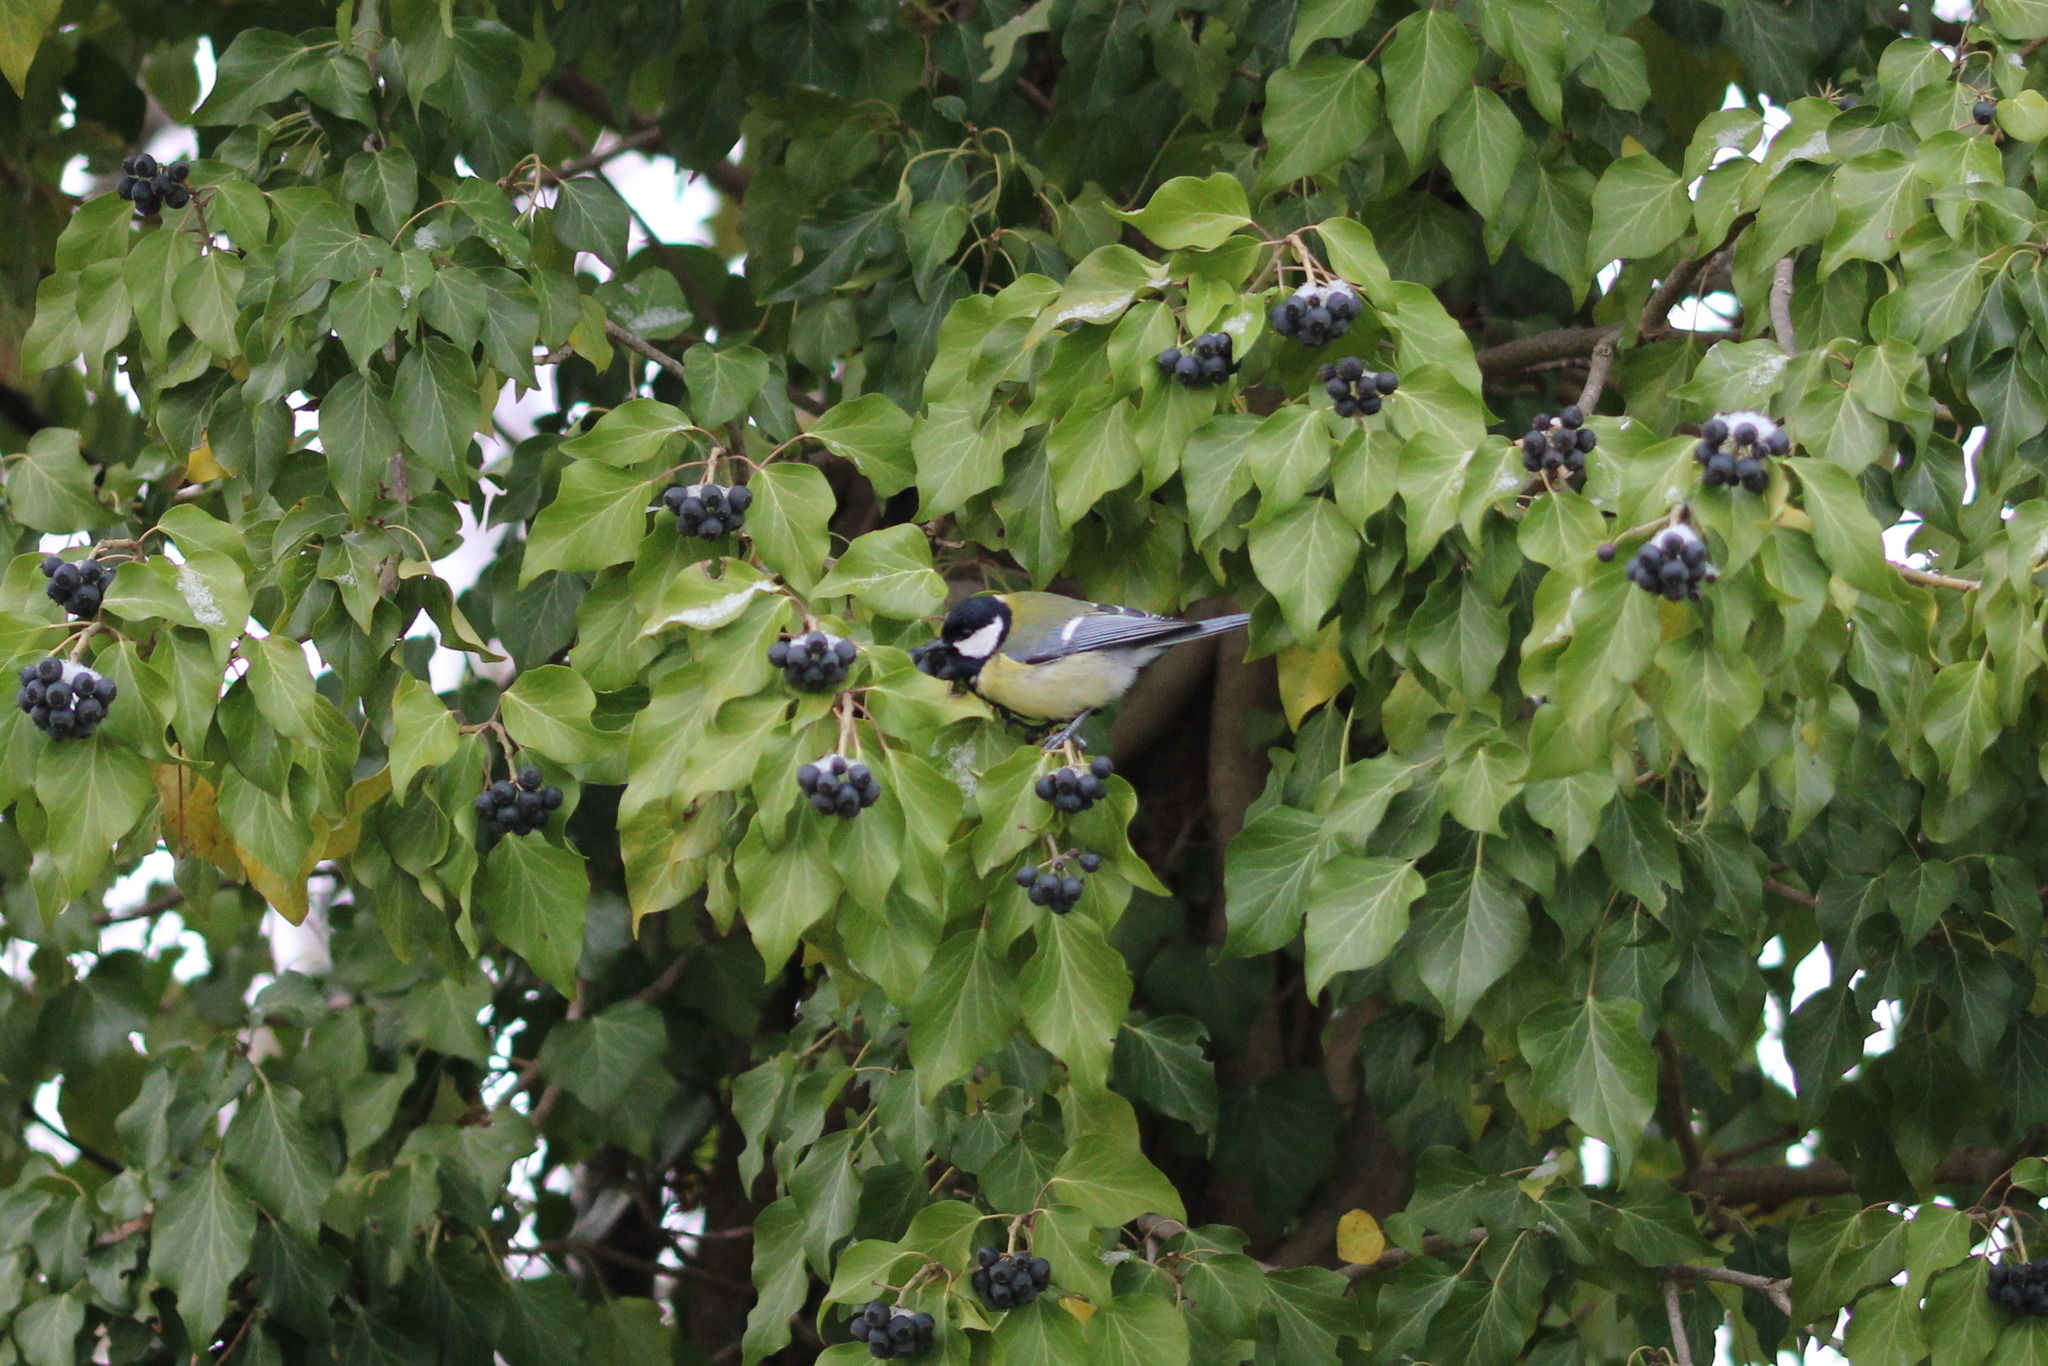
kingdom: Animalia
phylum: Chordata
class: Aves
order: Passeriformes
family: Paridae
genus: Parus
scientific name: Parus major
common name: Great tit
